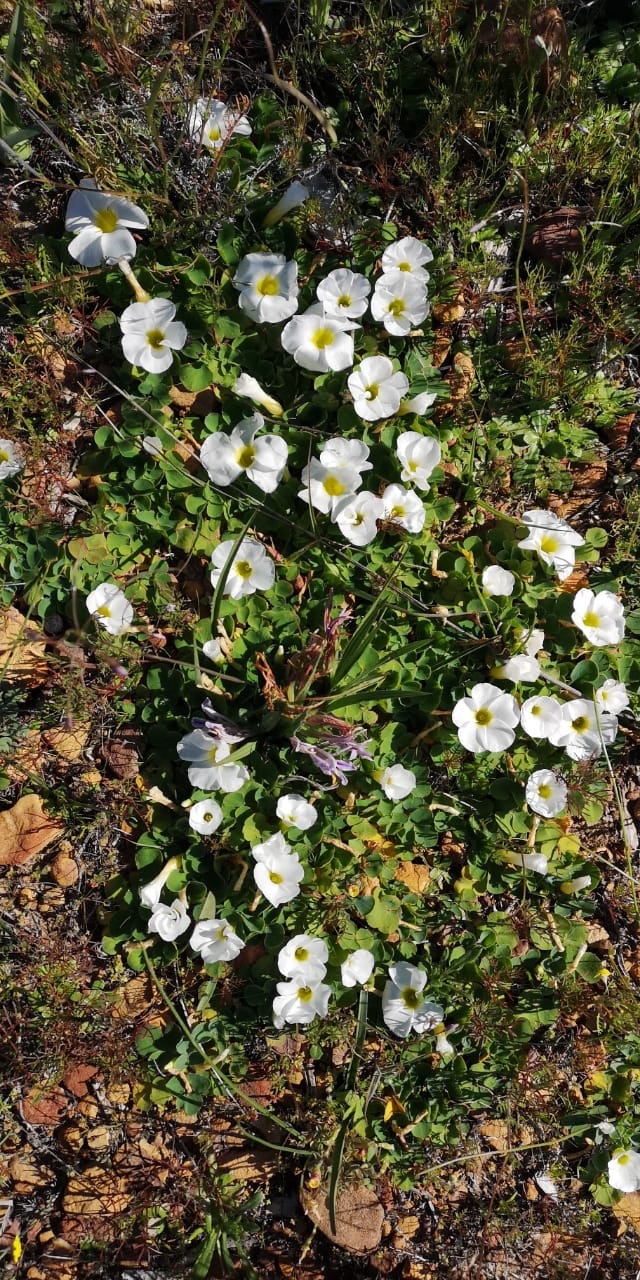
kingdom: Plantae
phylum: Tracheophyta
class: Magnoliopsida
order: Oxalidales
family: Oxalidaceae
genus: Oxalis
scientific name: Oxalis purpurea
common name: Purple woodsorrel
